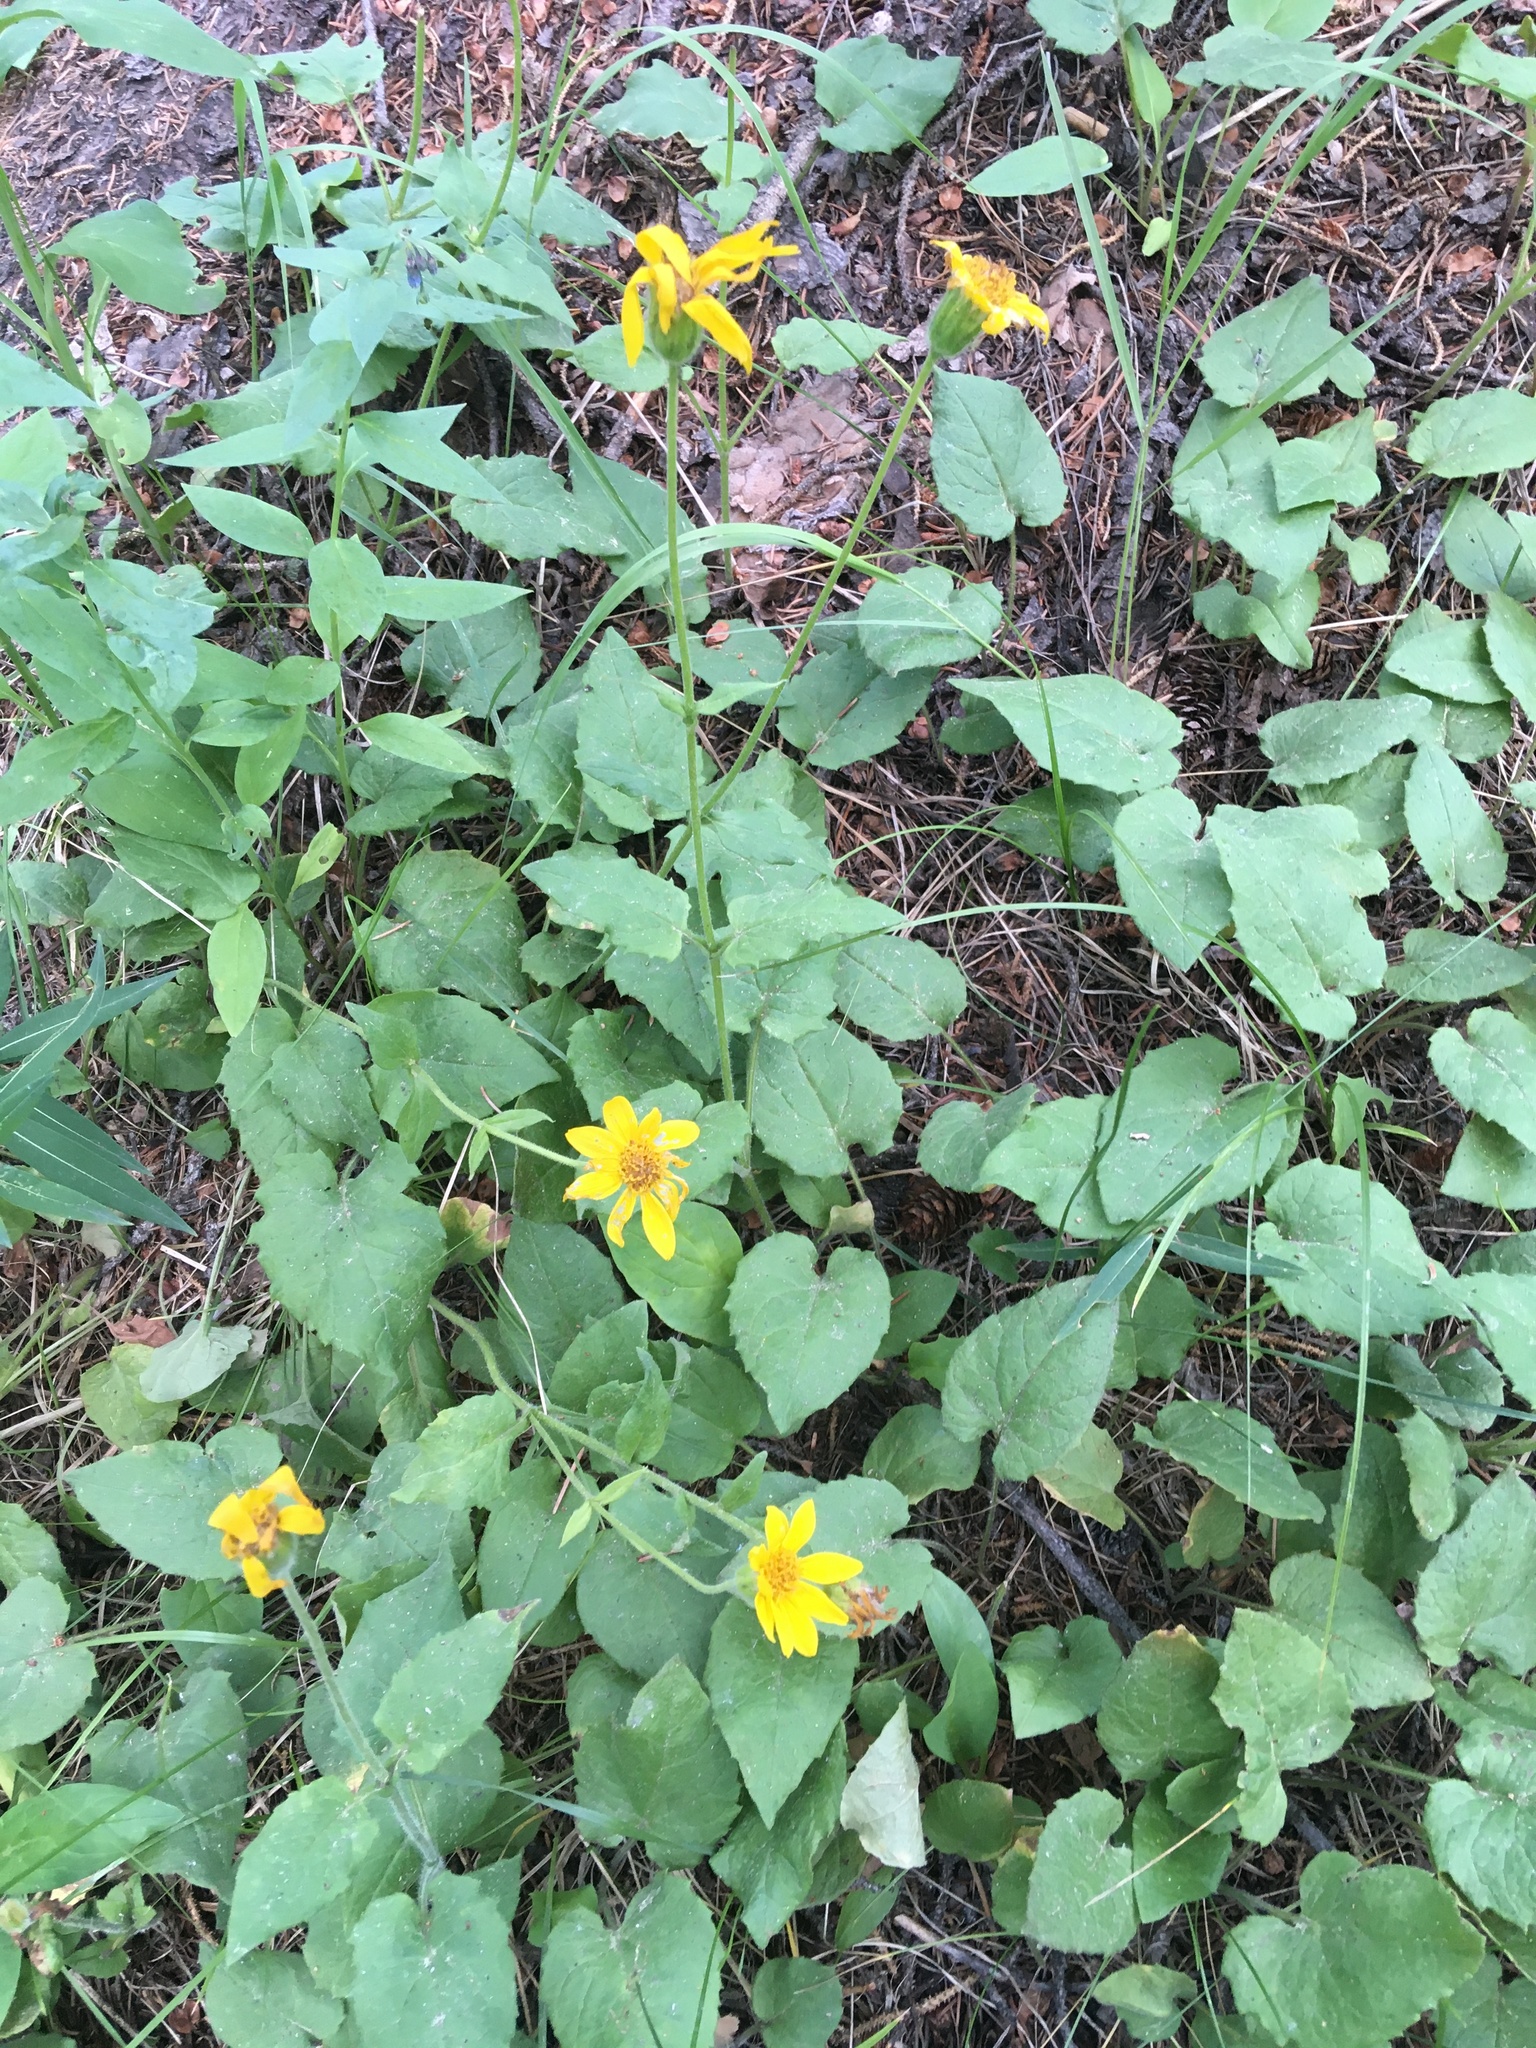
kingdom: Plantae
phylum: Tracheophyta
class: Magnoliopsida
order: Asterales
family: Asteraceae
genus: Arnica
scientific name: Arnica cordifolia
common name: Heart-leaf arnica
